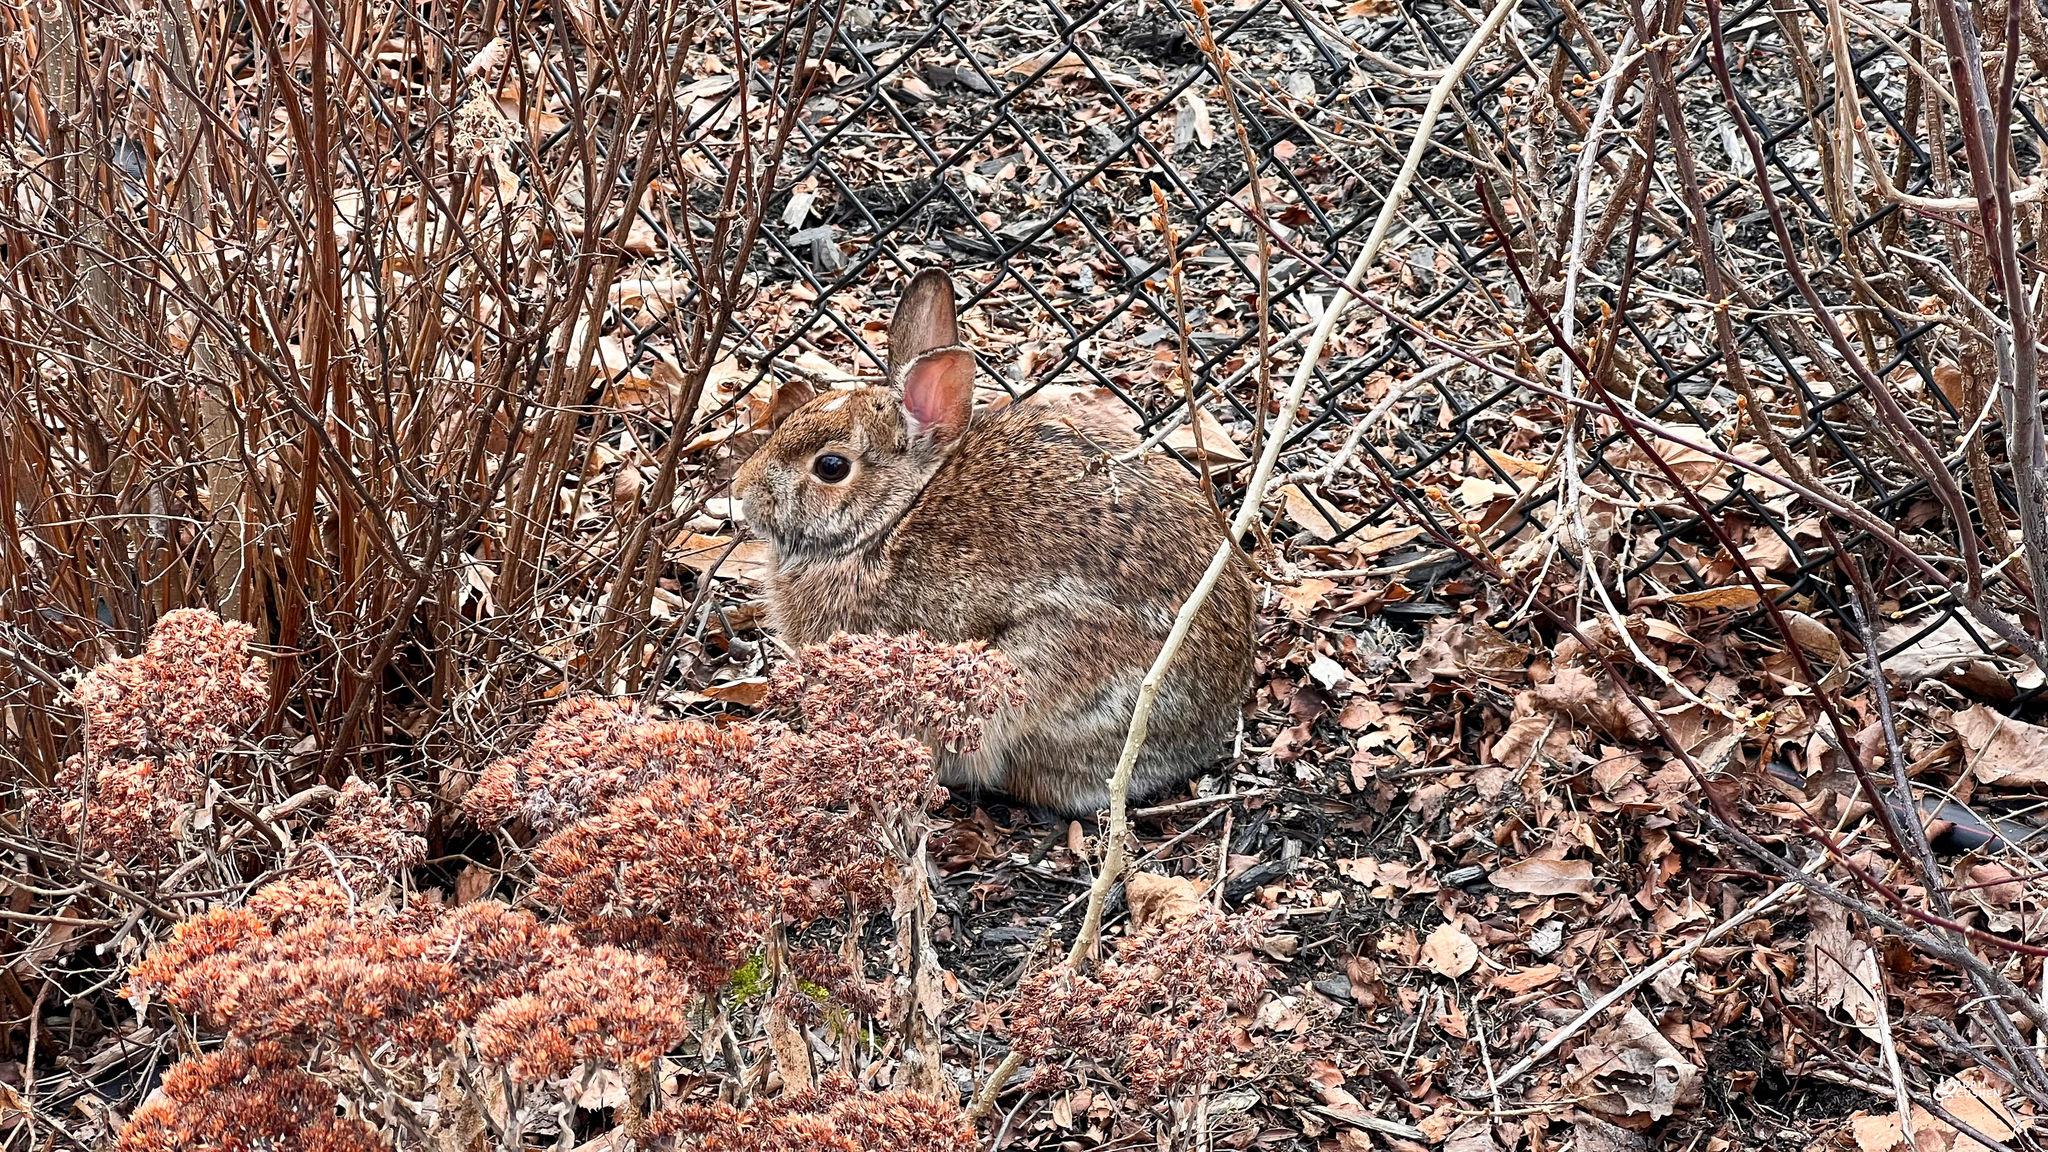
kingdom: Animalia
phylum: Chordata
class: Mammalia
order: Lagomorpha
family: Leporidae
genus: Sylvilagus
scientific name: Sylvilagus floridanus
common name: Eastern cottontail
